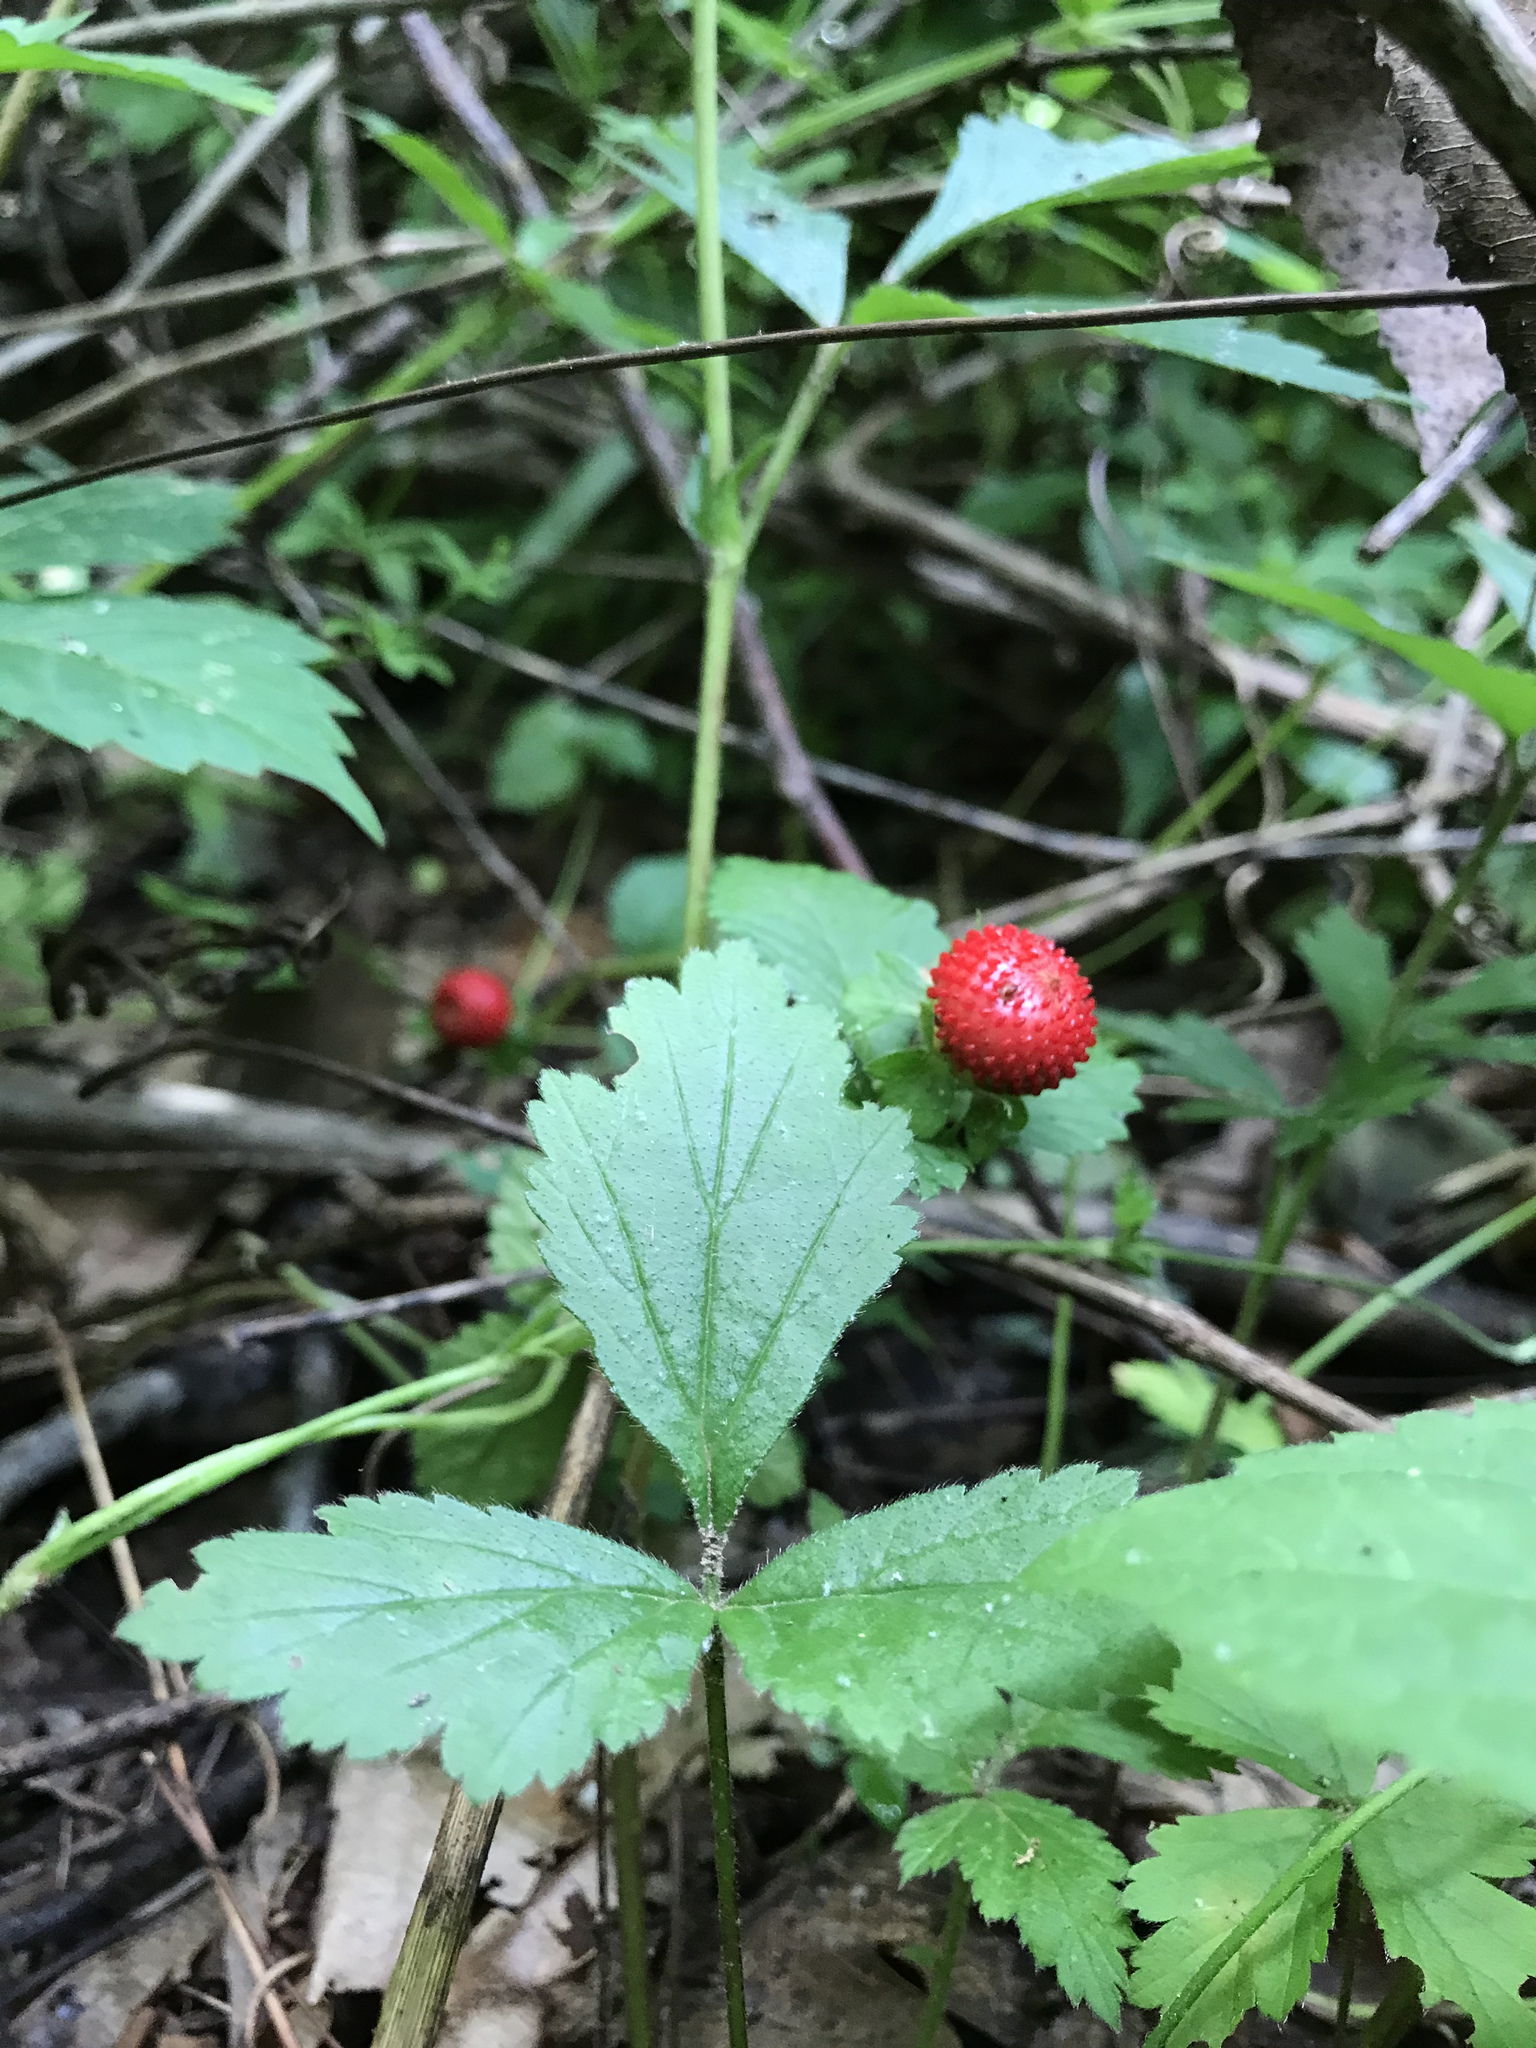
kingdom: Plantae
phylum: Tracheophyta
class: Magnoliopsida
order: Rosales
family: Rosaceae
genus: Potentilla
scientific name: Potentilla indica
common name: Yellow-flowered strawberry
